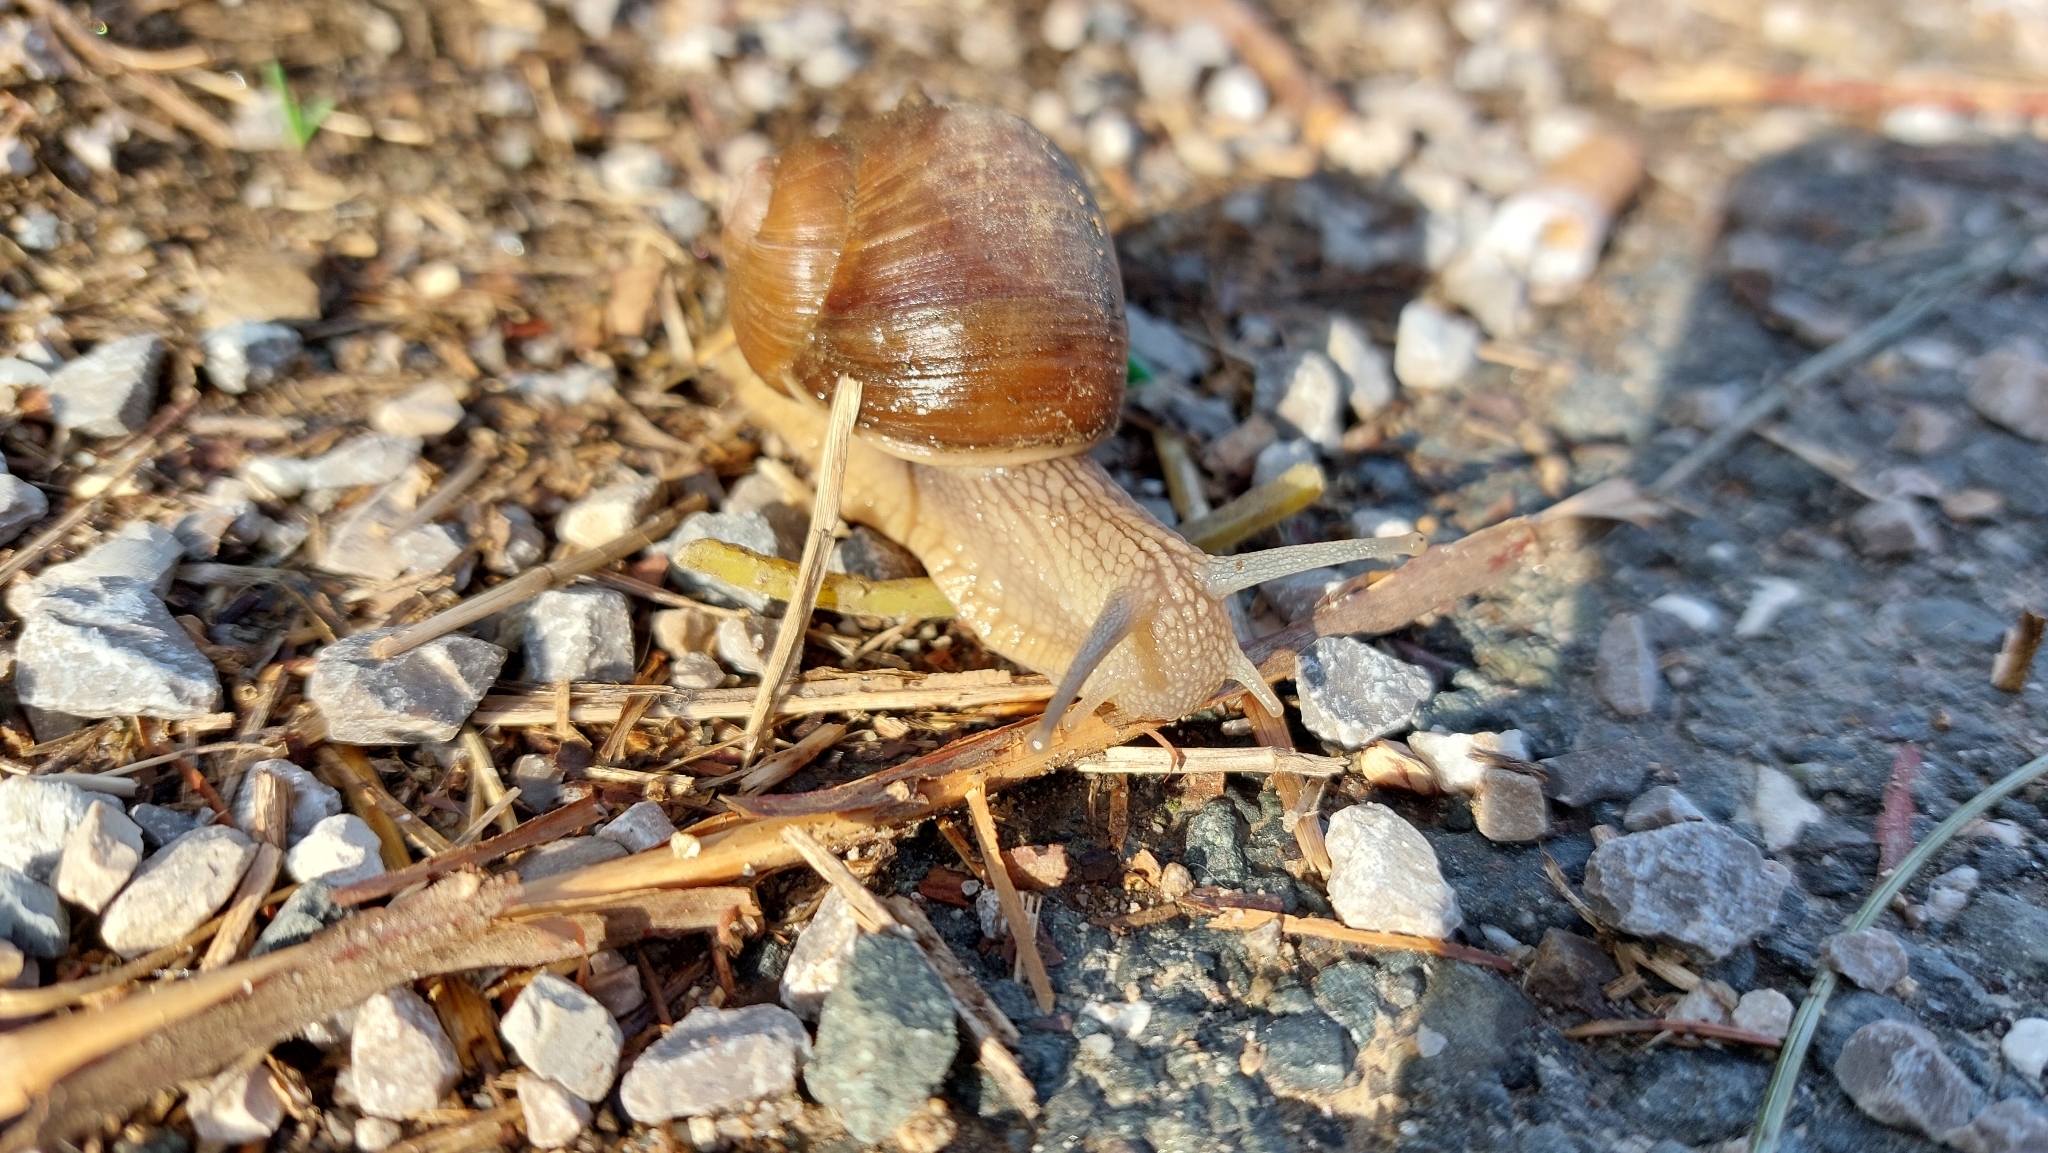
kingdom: Animalia
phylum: Mollusca
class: Gastropoda
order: Stylommatophora
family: Helicidae
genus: Helix
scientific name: Helix pomatia
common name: Roman snail
